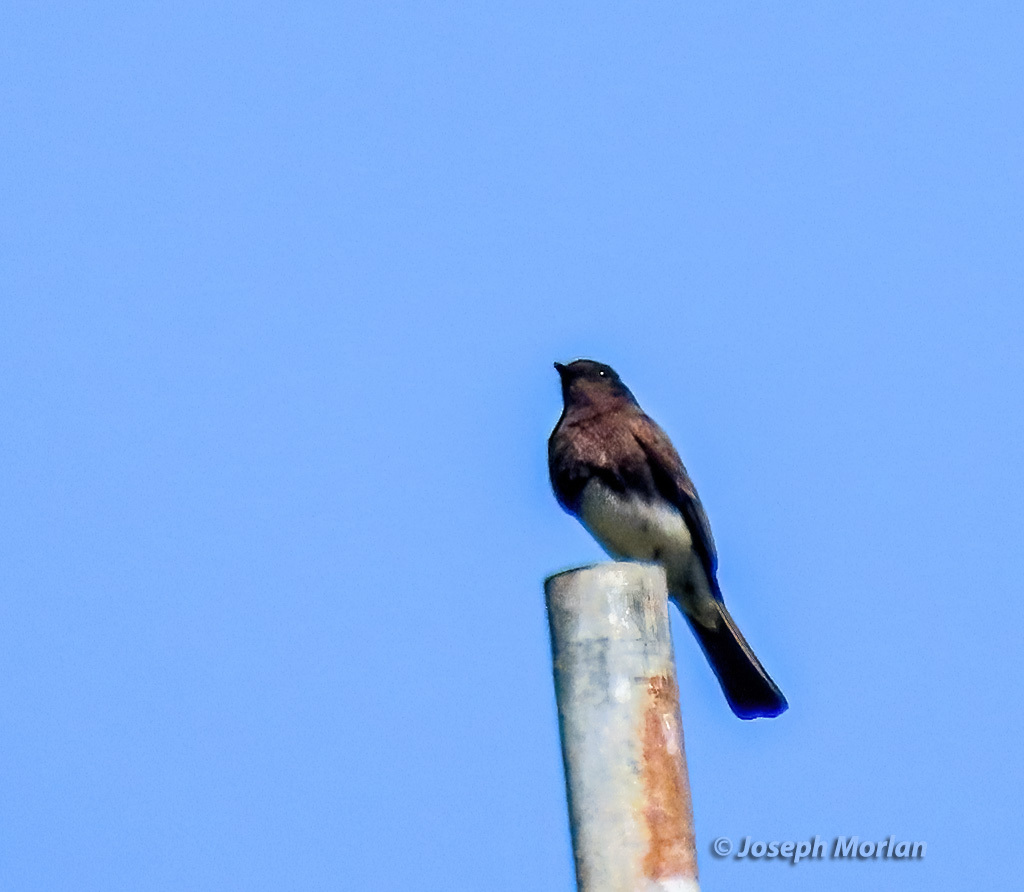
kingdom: Animalia
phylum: Chordata
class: Aves
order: Passeriformes
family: Tyrannidae
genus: Sayornis
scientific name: Sayornis nigricans
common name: Black phoebe
